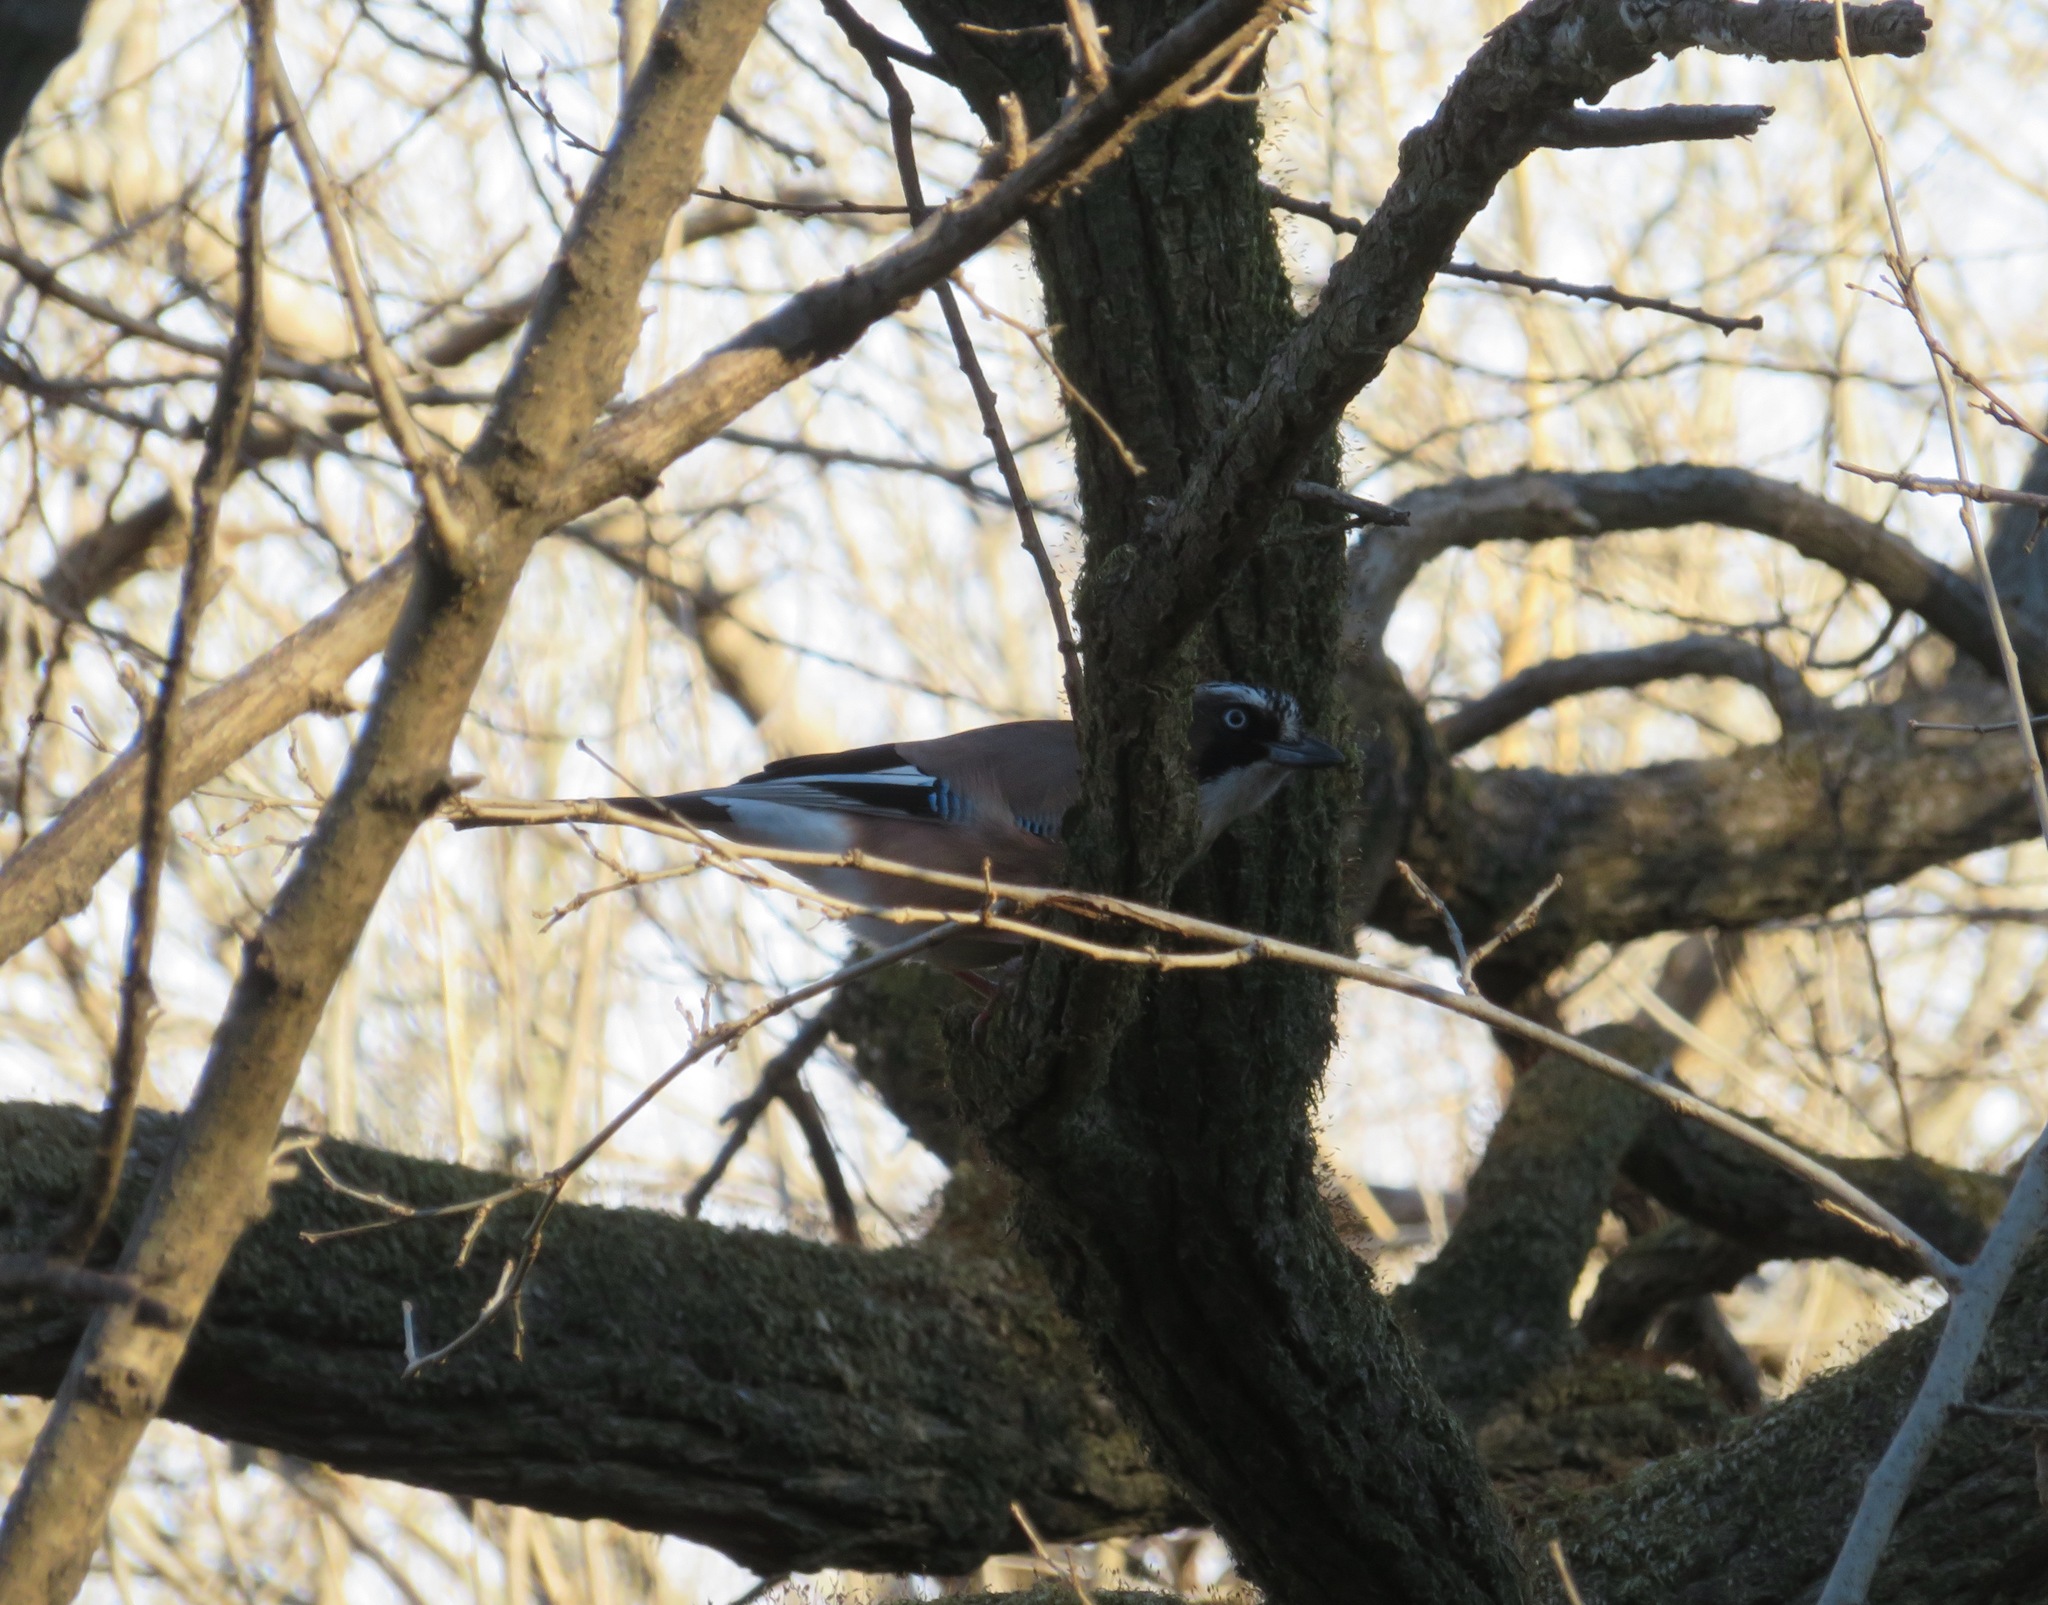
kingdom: Animalia
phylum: Chordata
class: Aves
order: Passeriformes
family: Corvidae
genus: Garrulus
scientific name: Garrulus glandarius
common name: Eurasian jay
